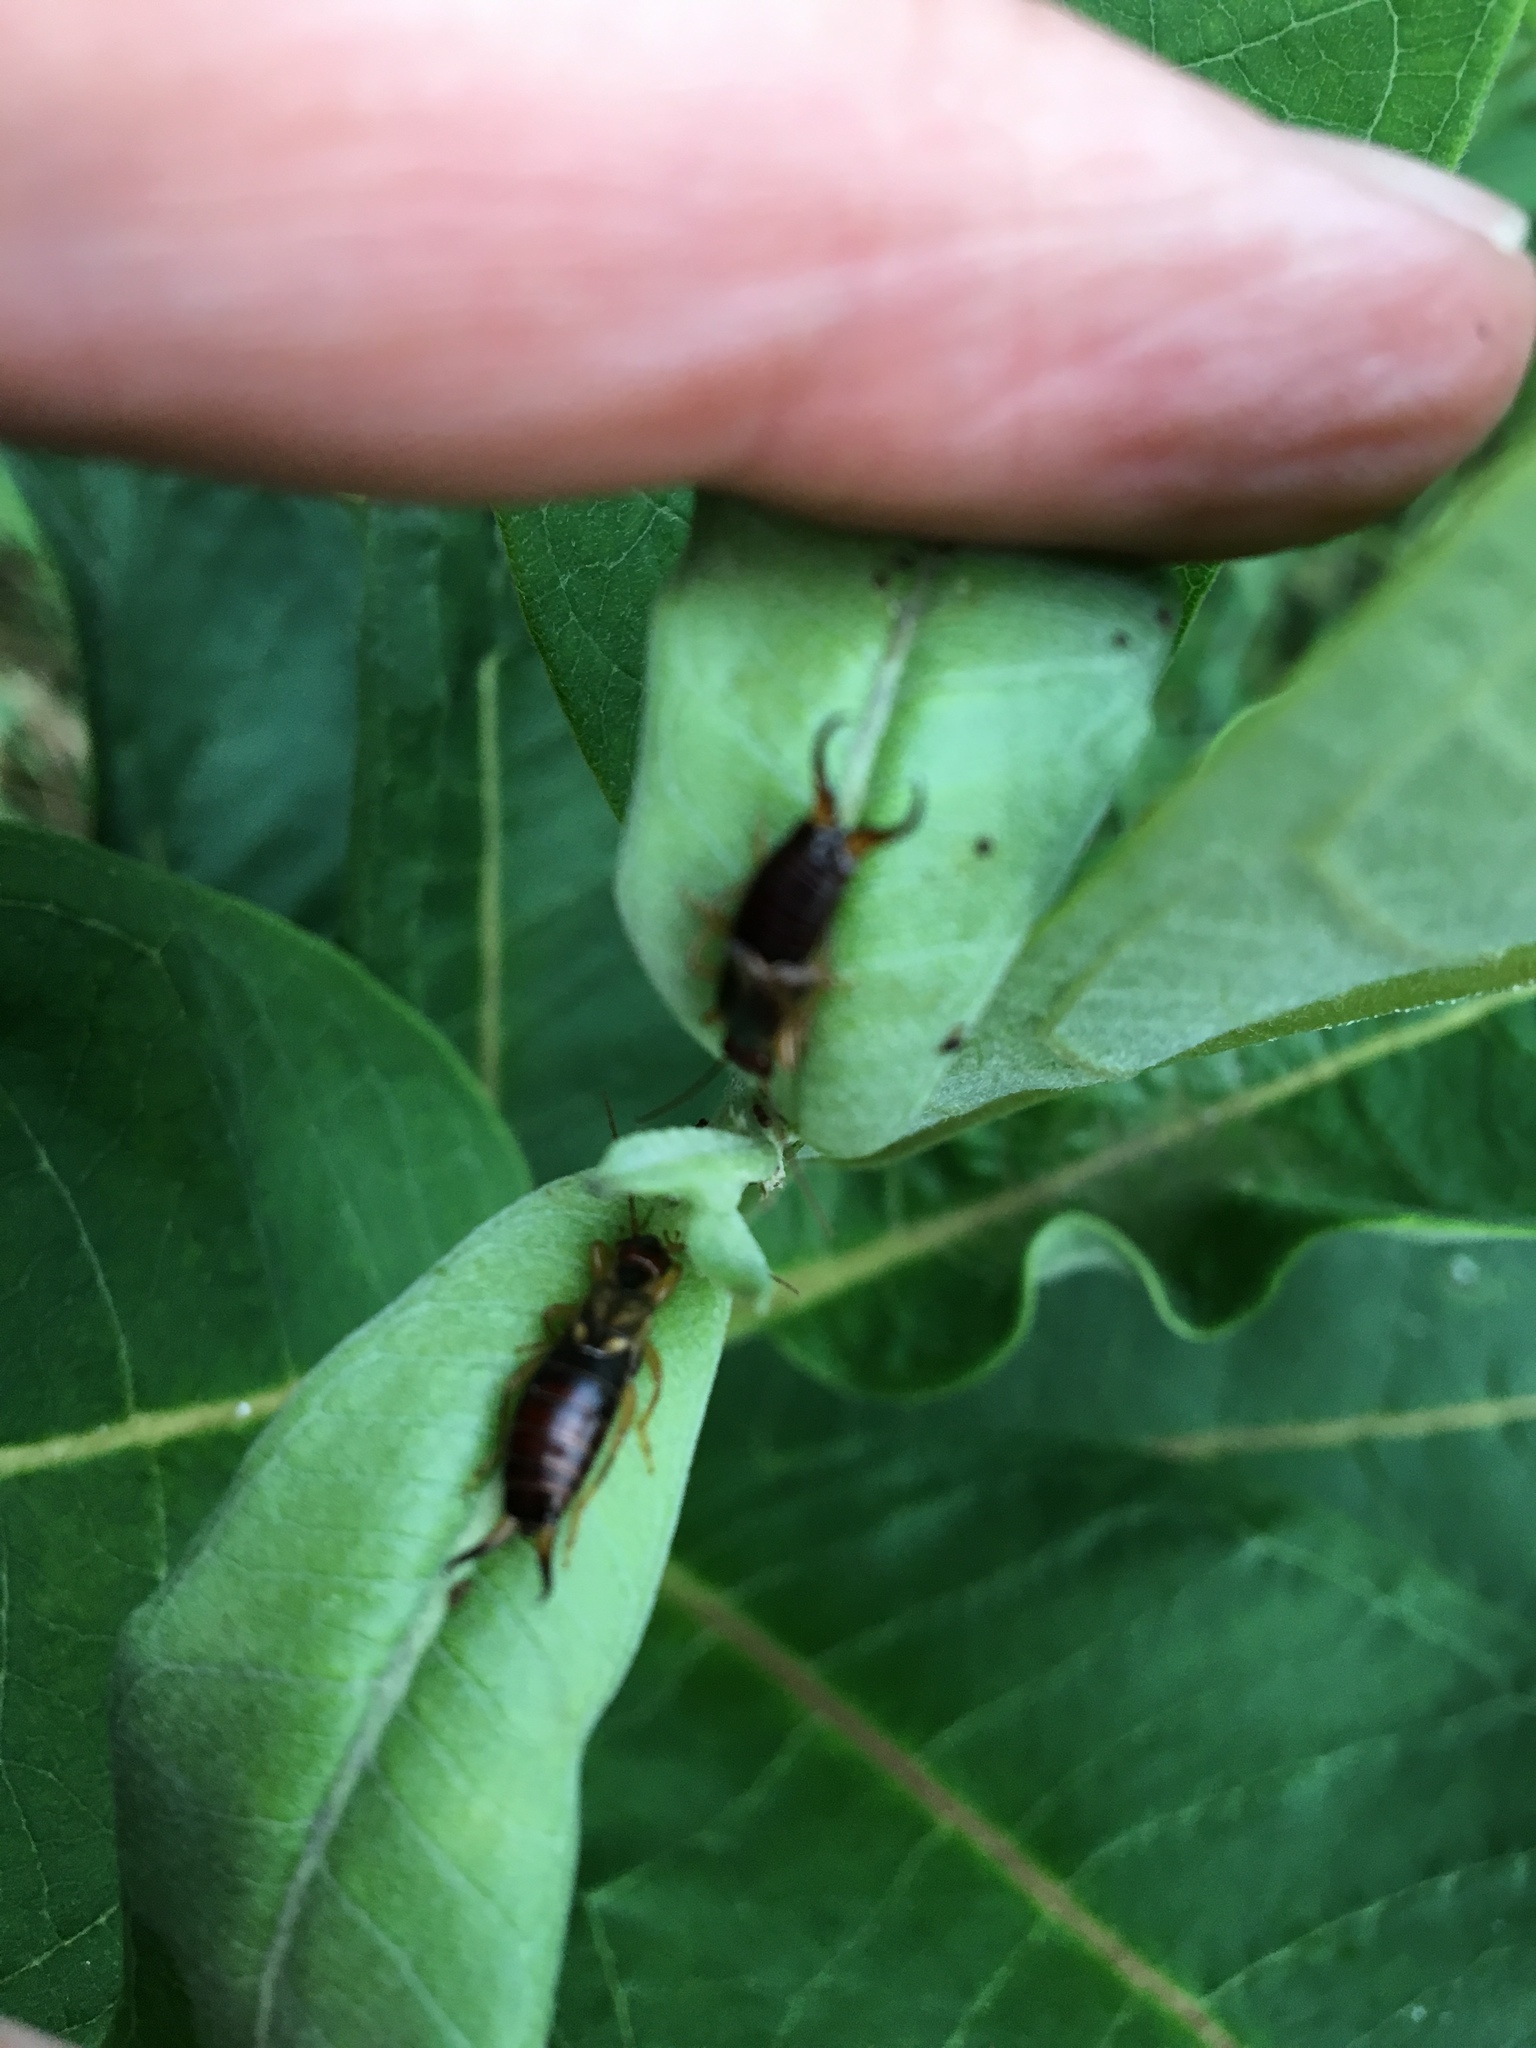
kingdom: Animalia
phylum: Arthropoda
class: Insecta
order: Dermaptera
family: Forficulidae
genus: Forficula
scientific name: Forficula
